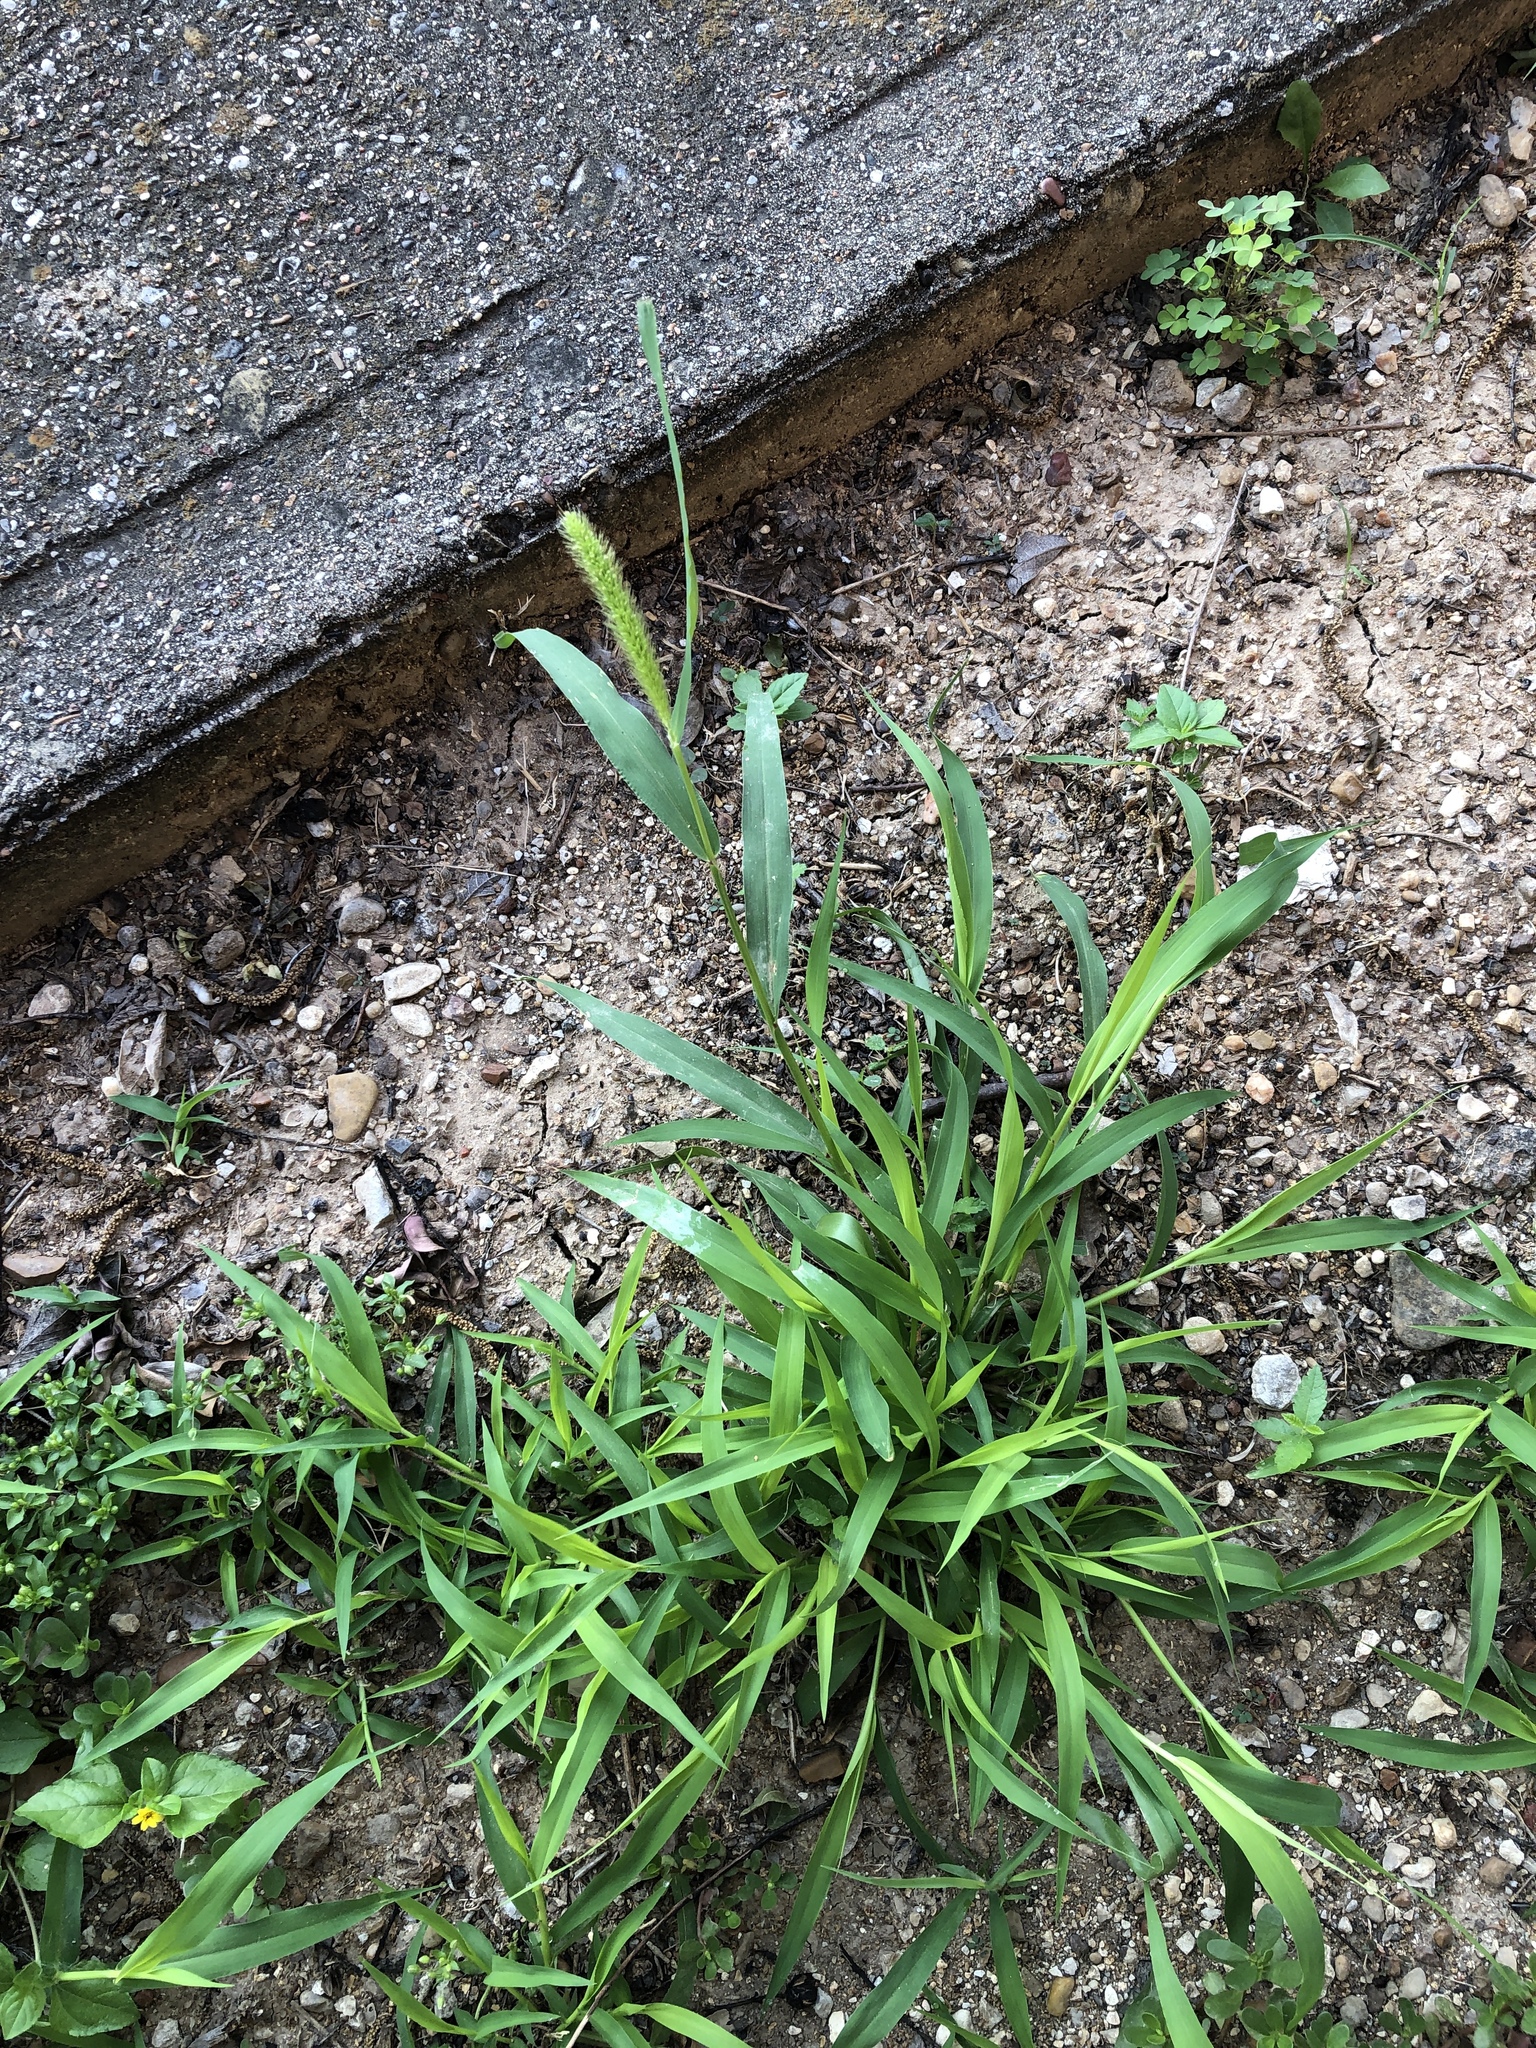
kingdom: Plantae
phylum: Tracheophyta
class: Liliopsida
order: Poales
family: Poaceae
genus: Setaria
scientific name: Setaria viridis
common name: Green bristlegrass
